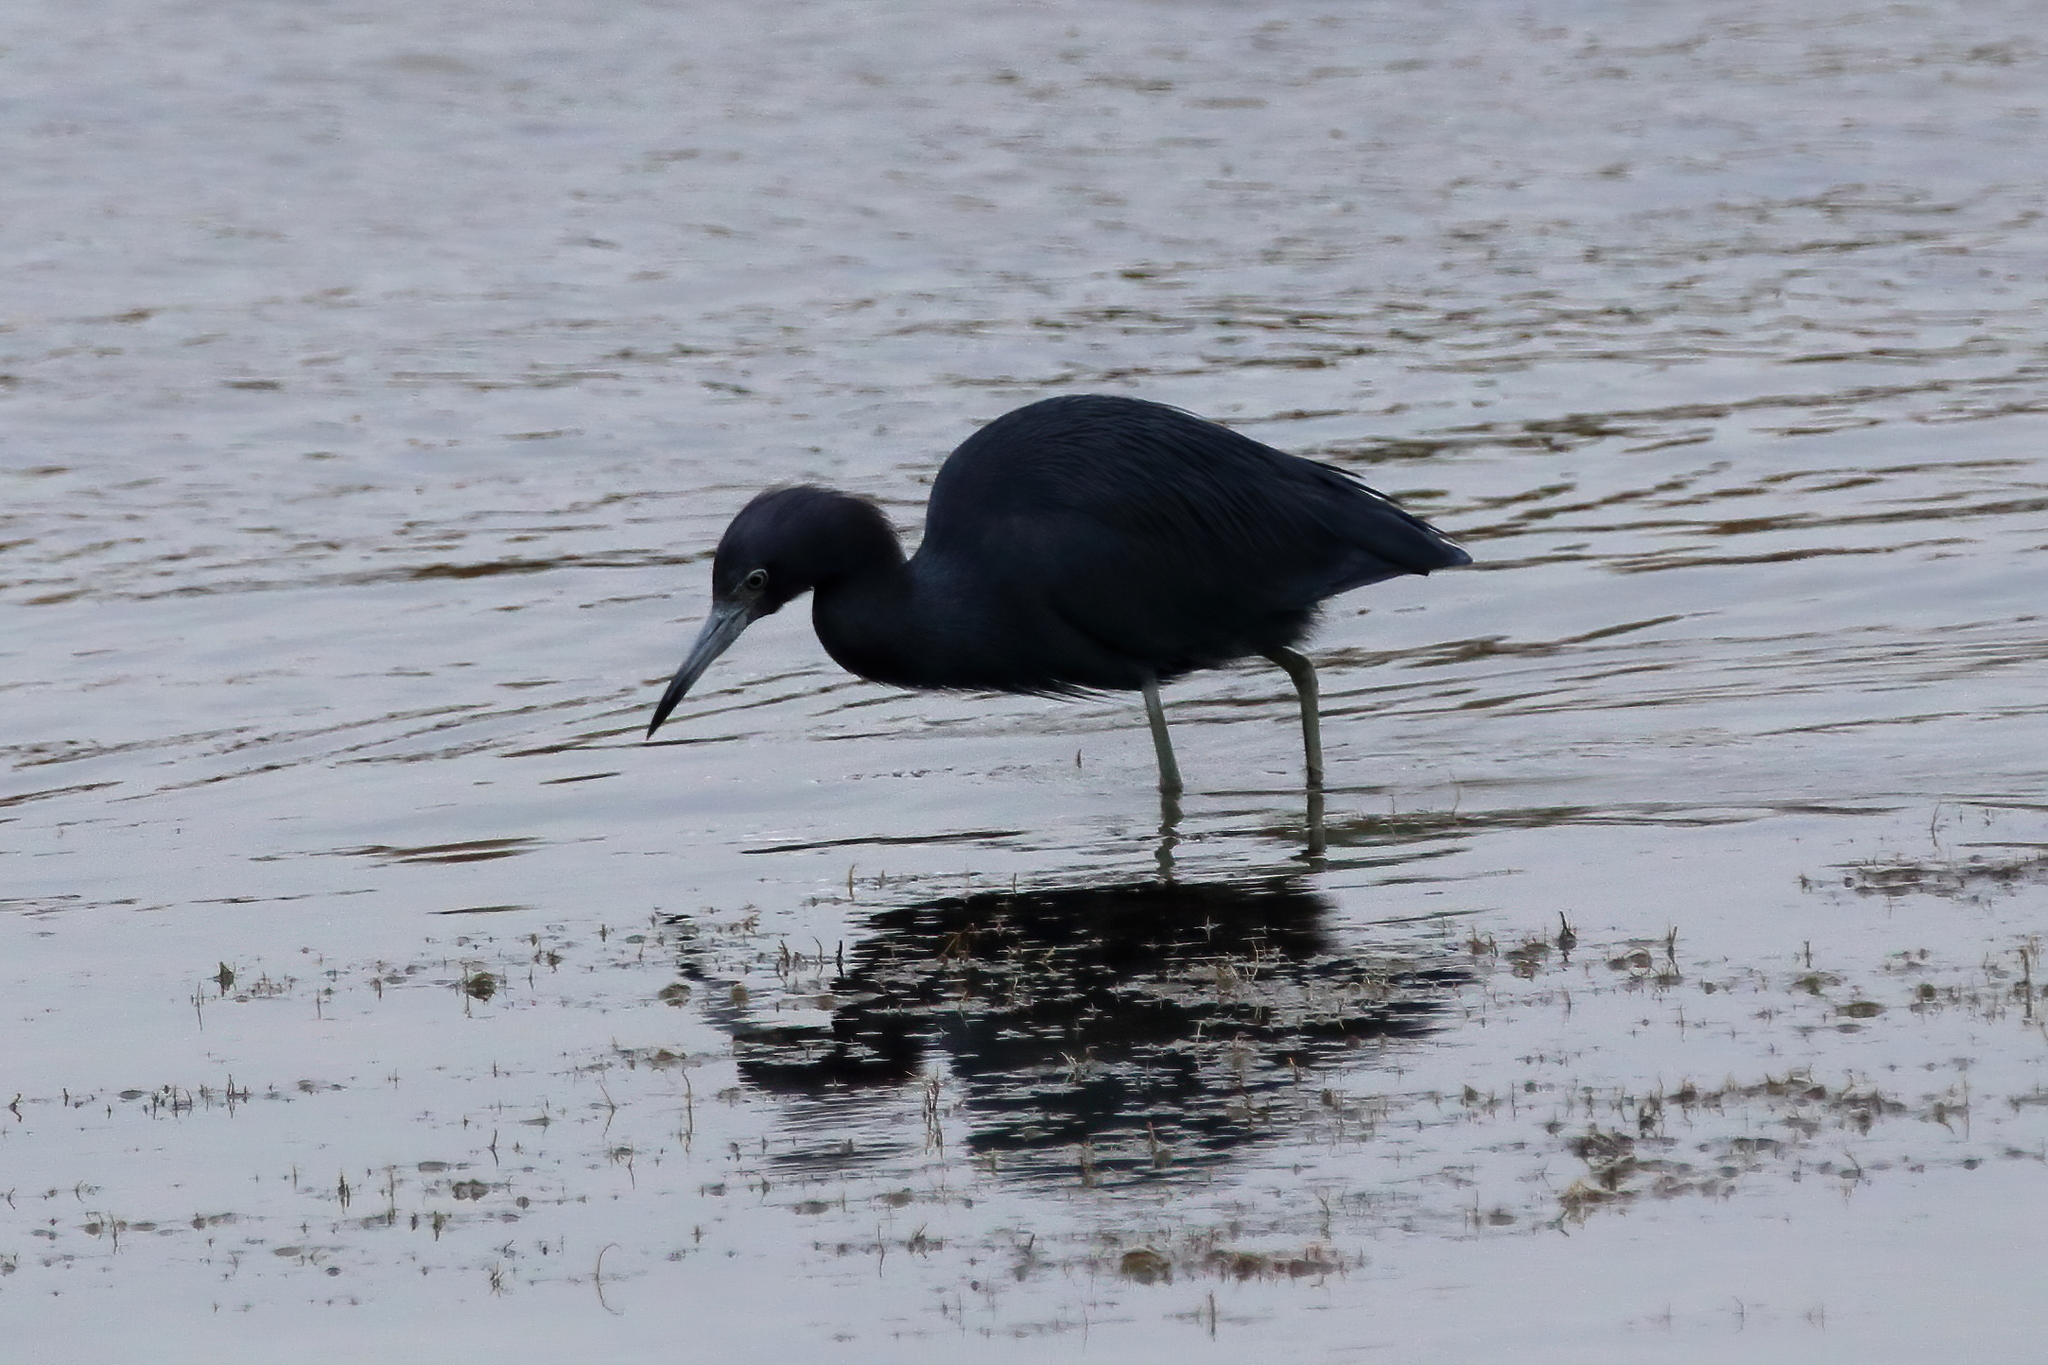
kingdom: Animalia
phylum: Chordata
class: Aves
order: Pelecaniformes
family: Ardeidae
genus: Egretta
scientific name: Egretta caerulea
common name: Little blue heron
